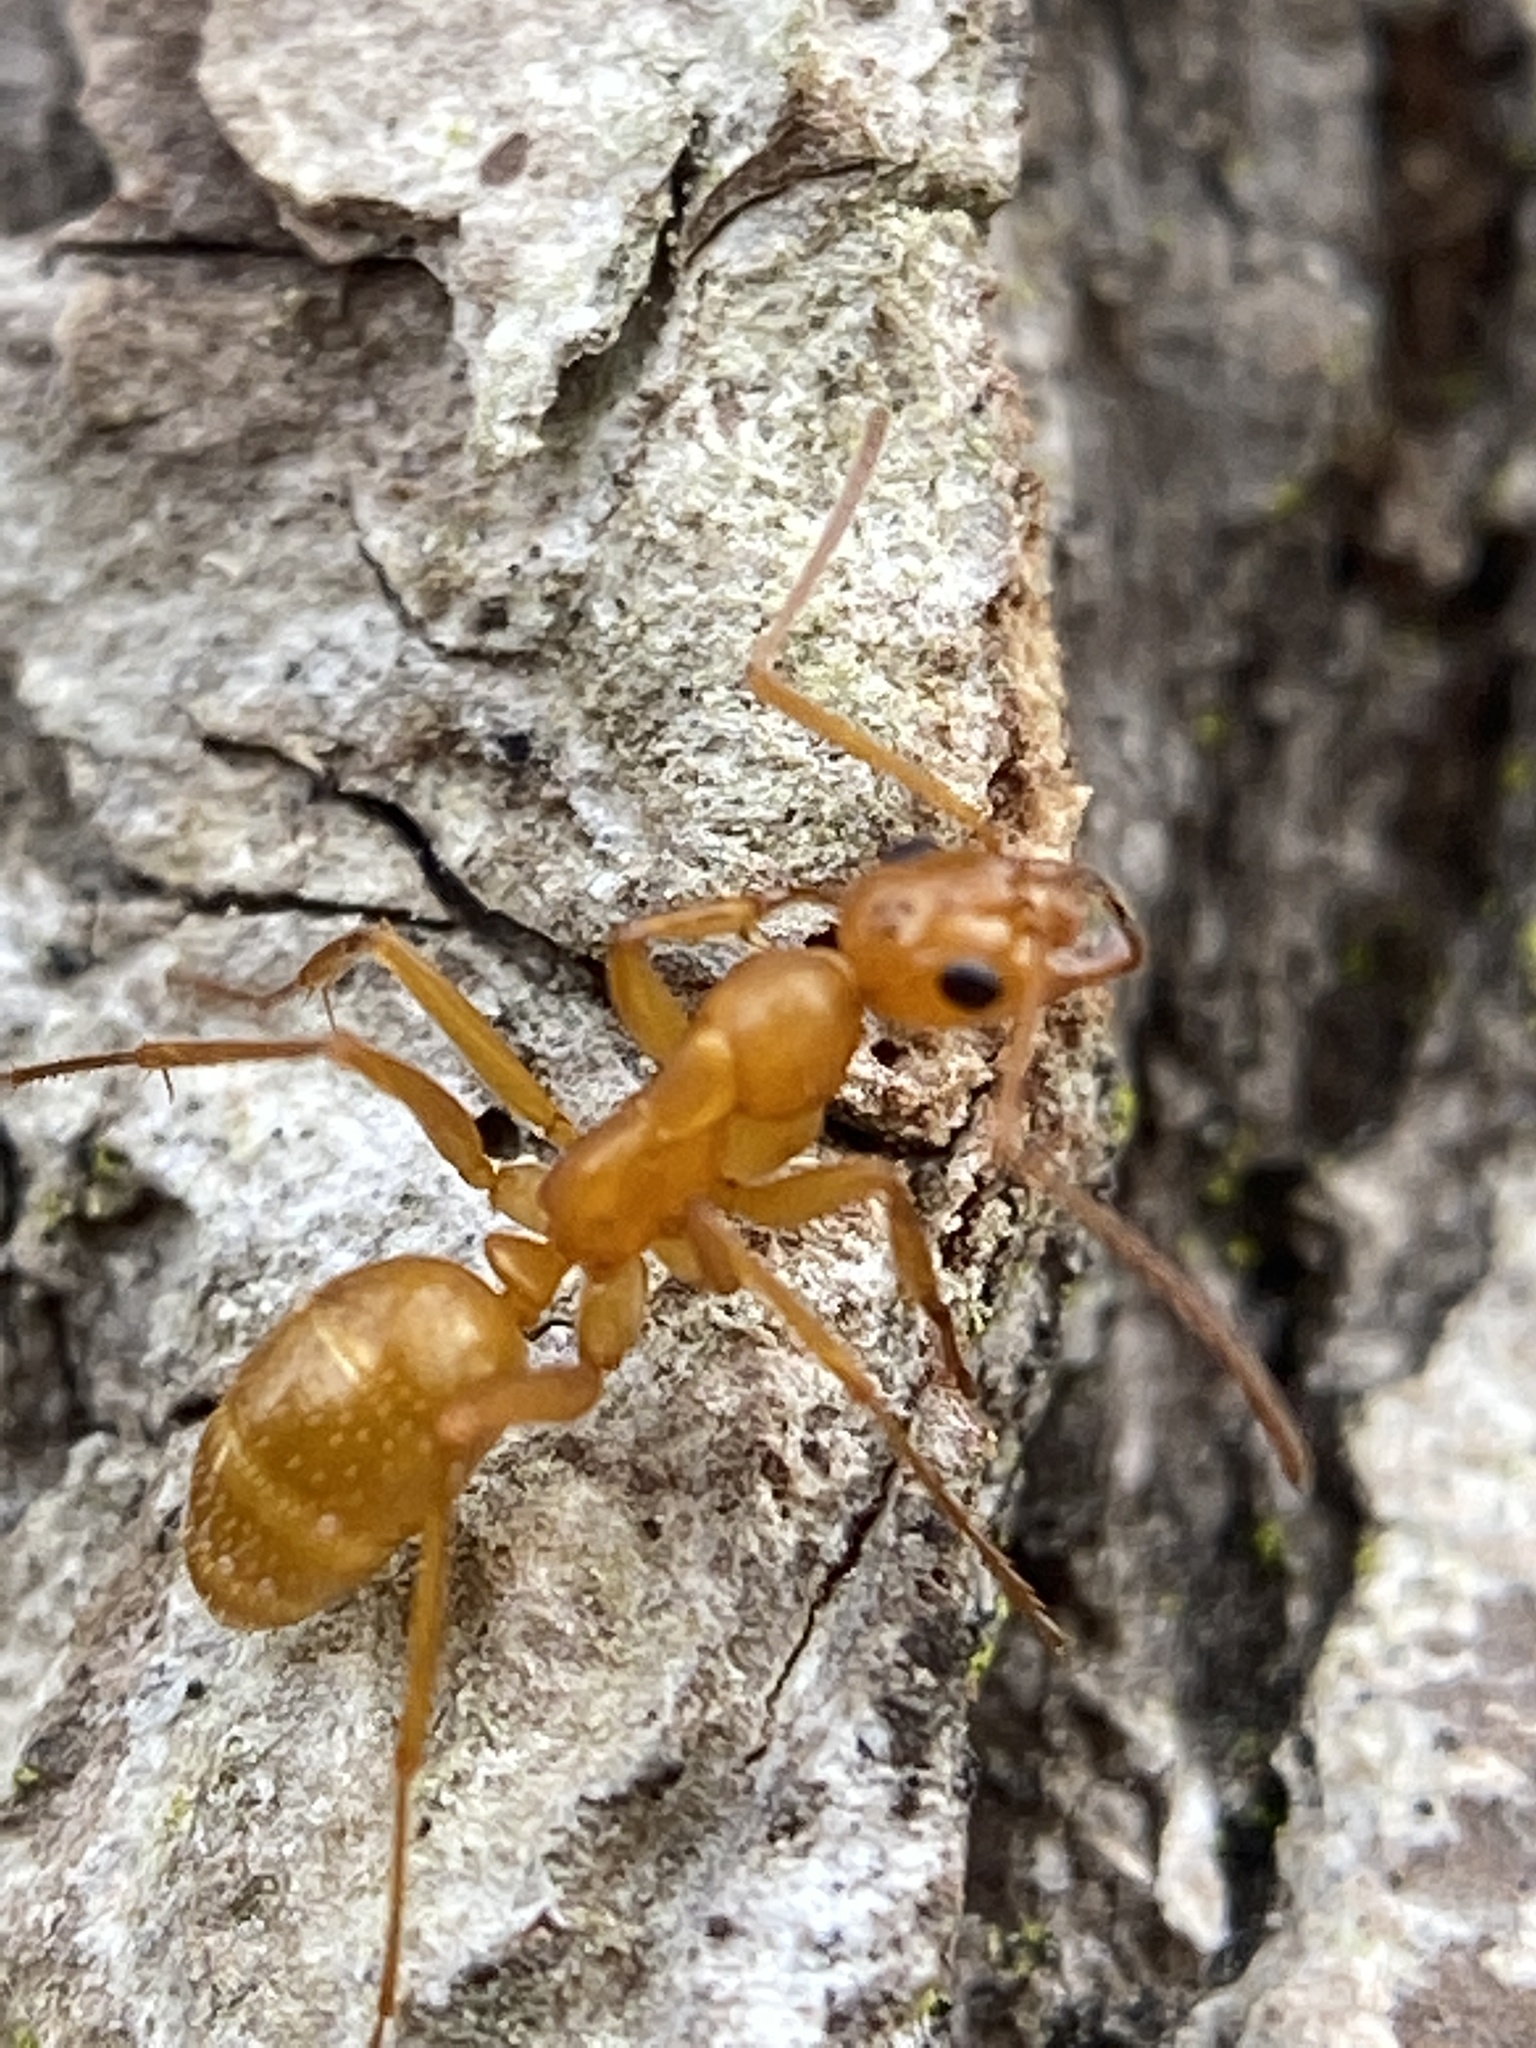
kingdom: Animalia
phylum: Arthropoda
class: Insecta
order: Hymenoptera
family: Formicidae
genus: Formica
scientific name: Formica pallidefulva
